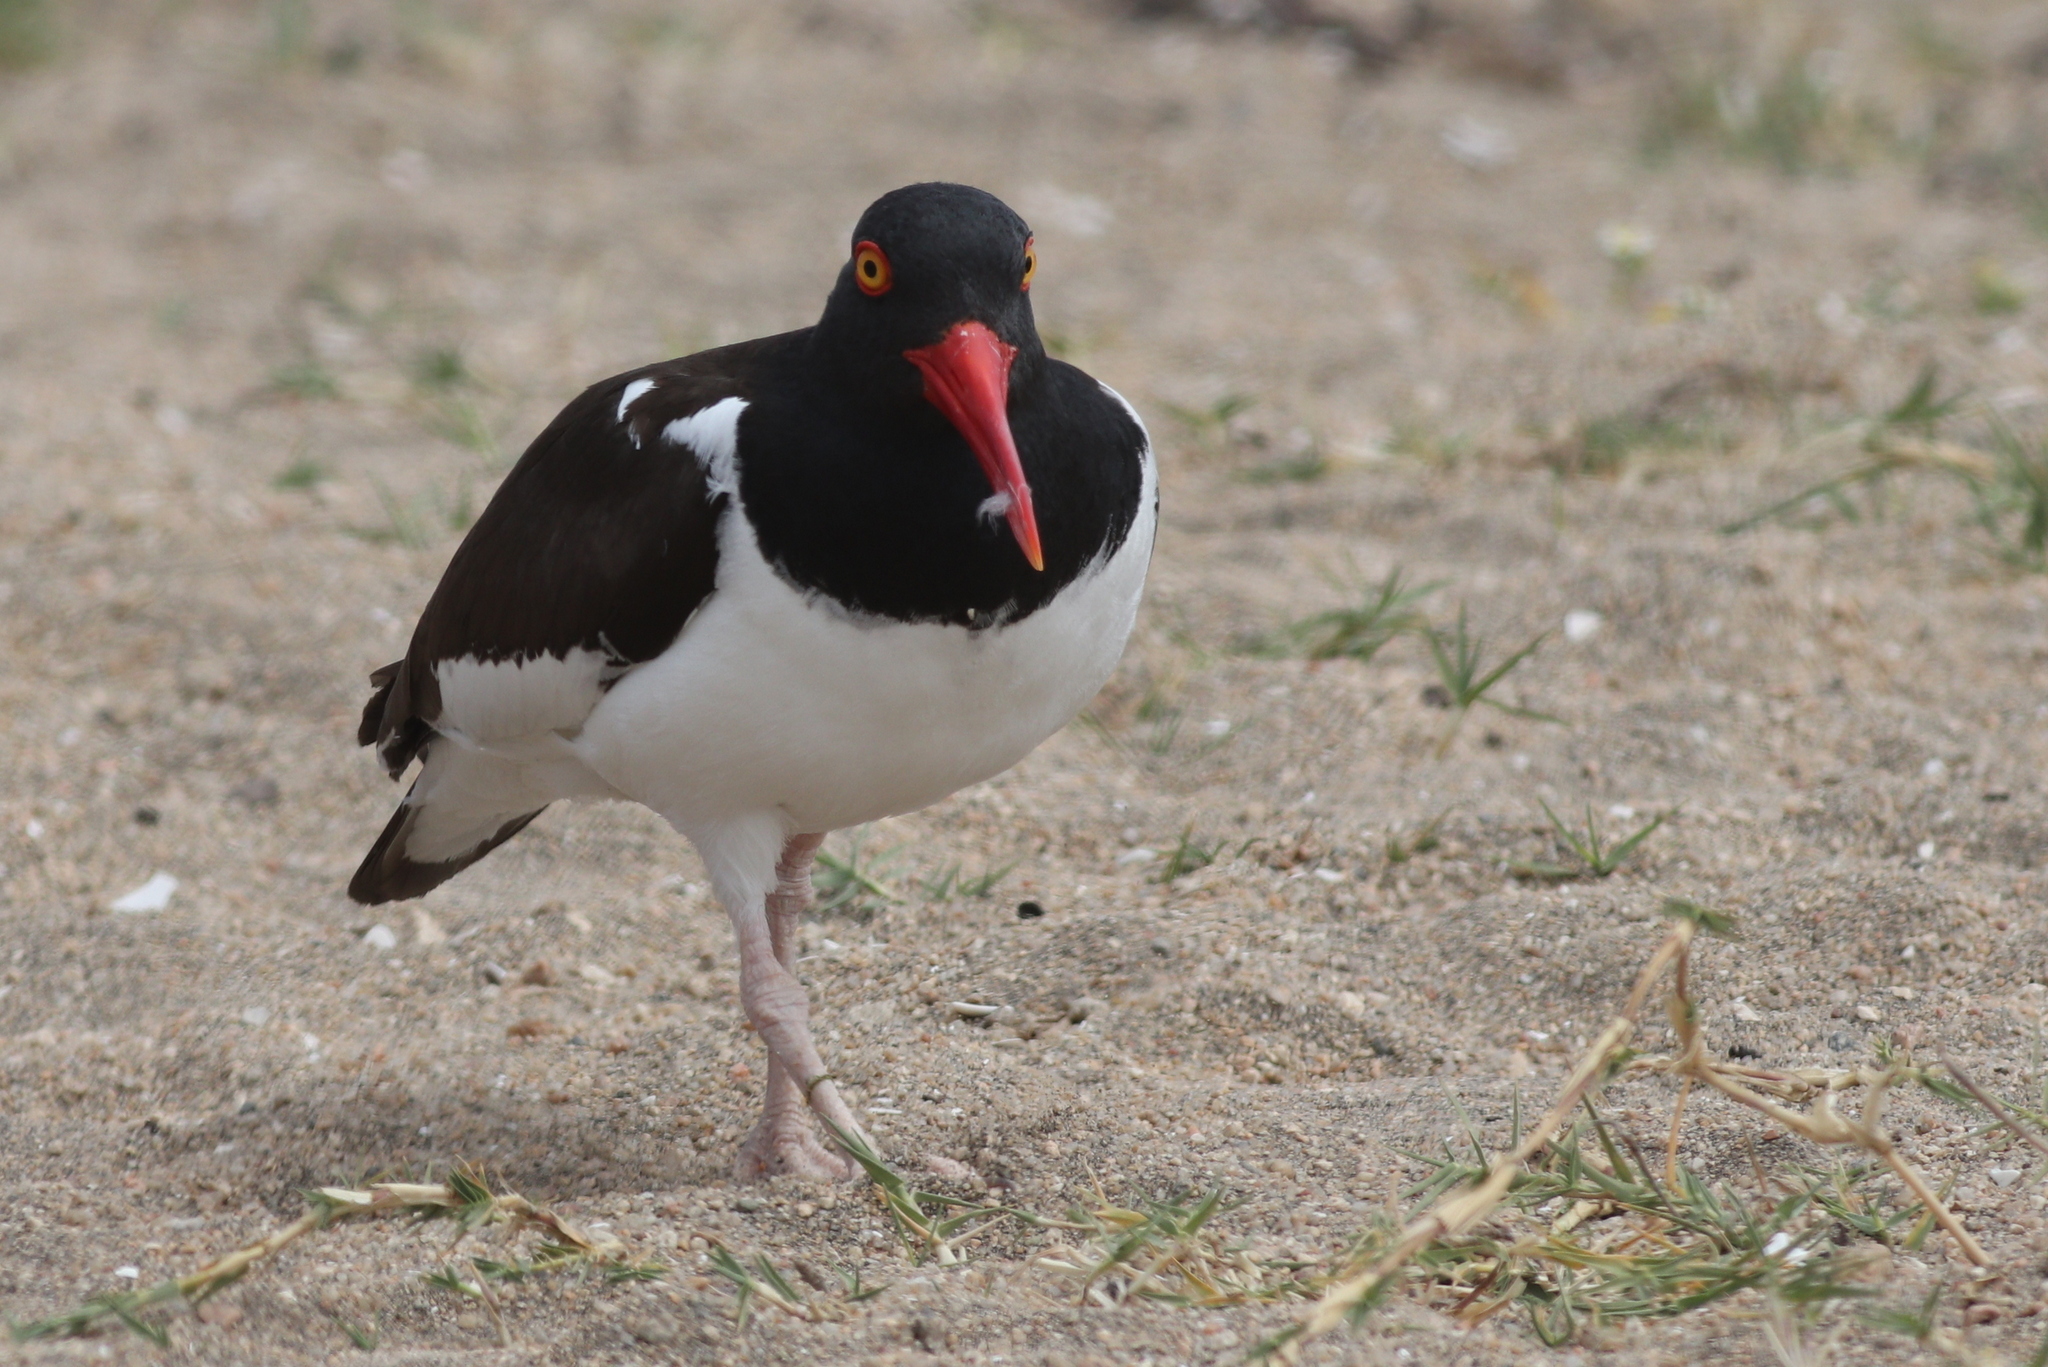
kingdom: Animalia
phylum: Chordata
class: Aves
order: Charadriiformes
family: Haematopodidae
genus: Haematopus
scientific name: Haematopus palliatus
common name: American oystercatcher
